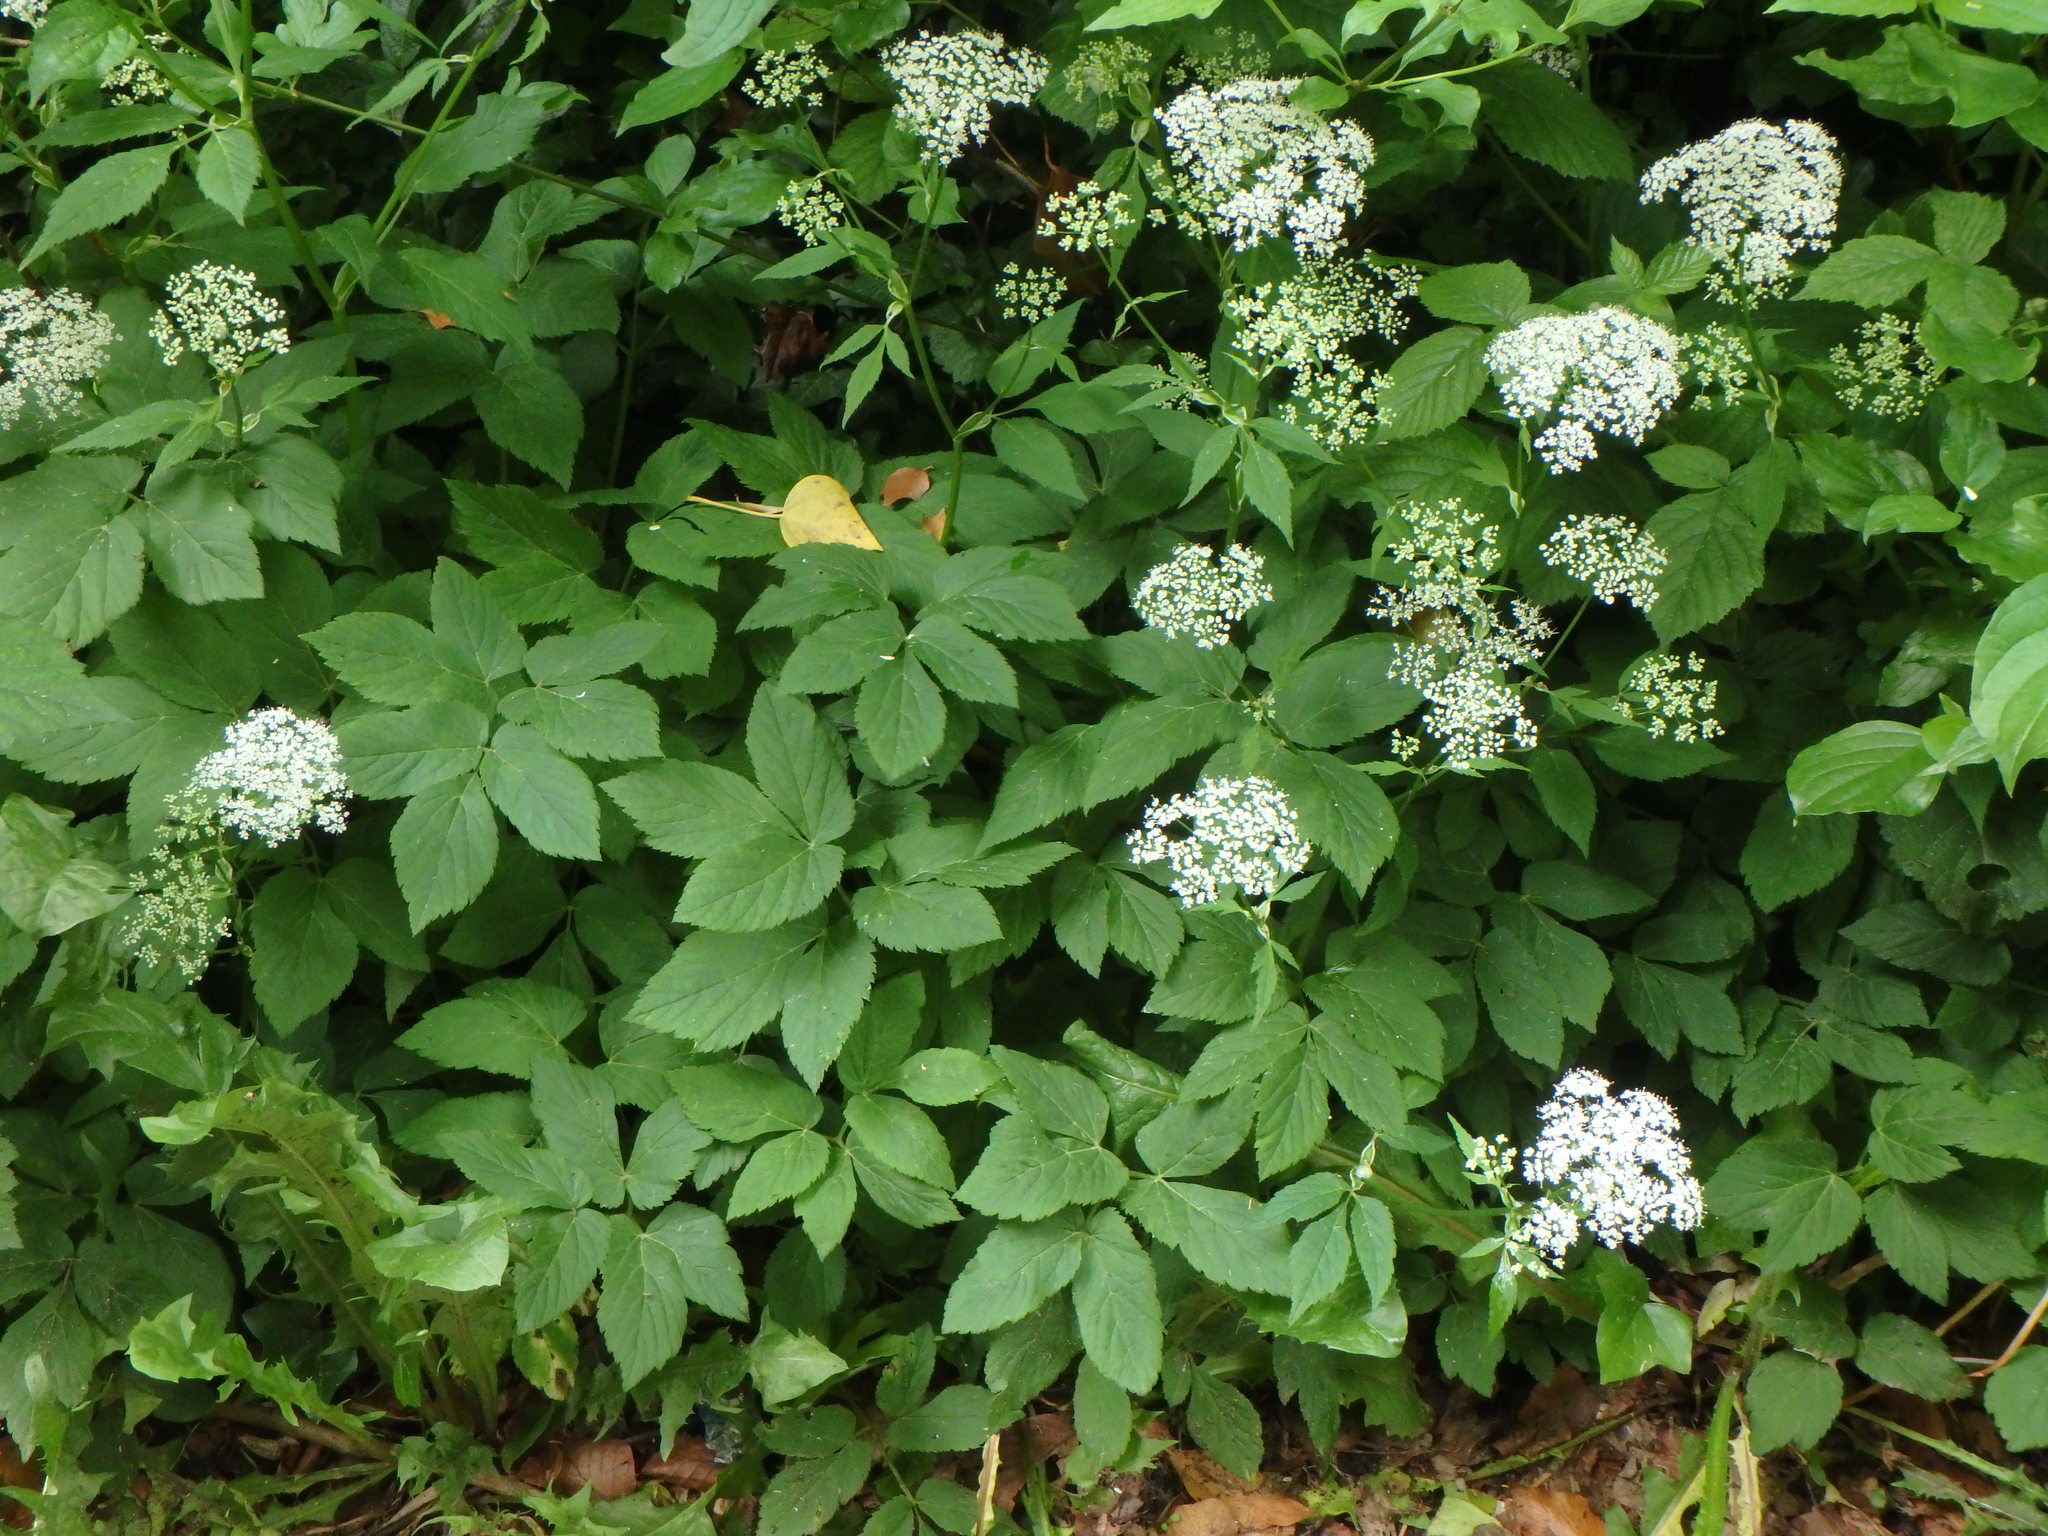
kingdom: Plantae
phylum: Tracheophyta
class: Magnoliopsida
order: Apiales
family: Apiaceae
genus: Aegopodium
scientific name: Aegopodium podagraria
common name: Ground-elder
